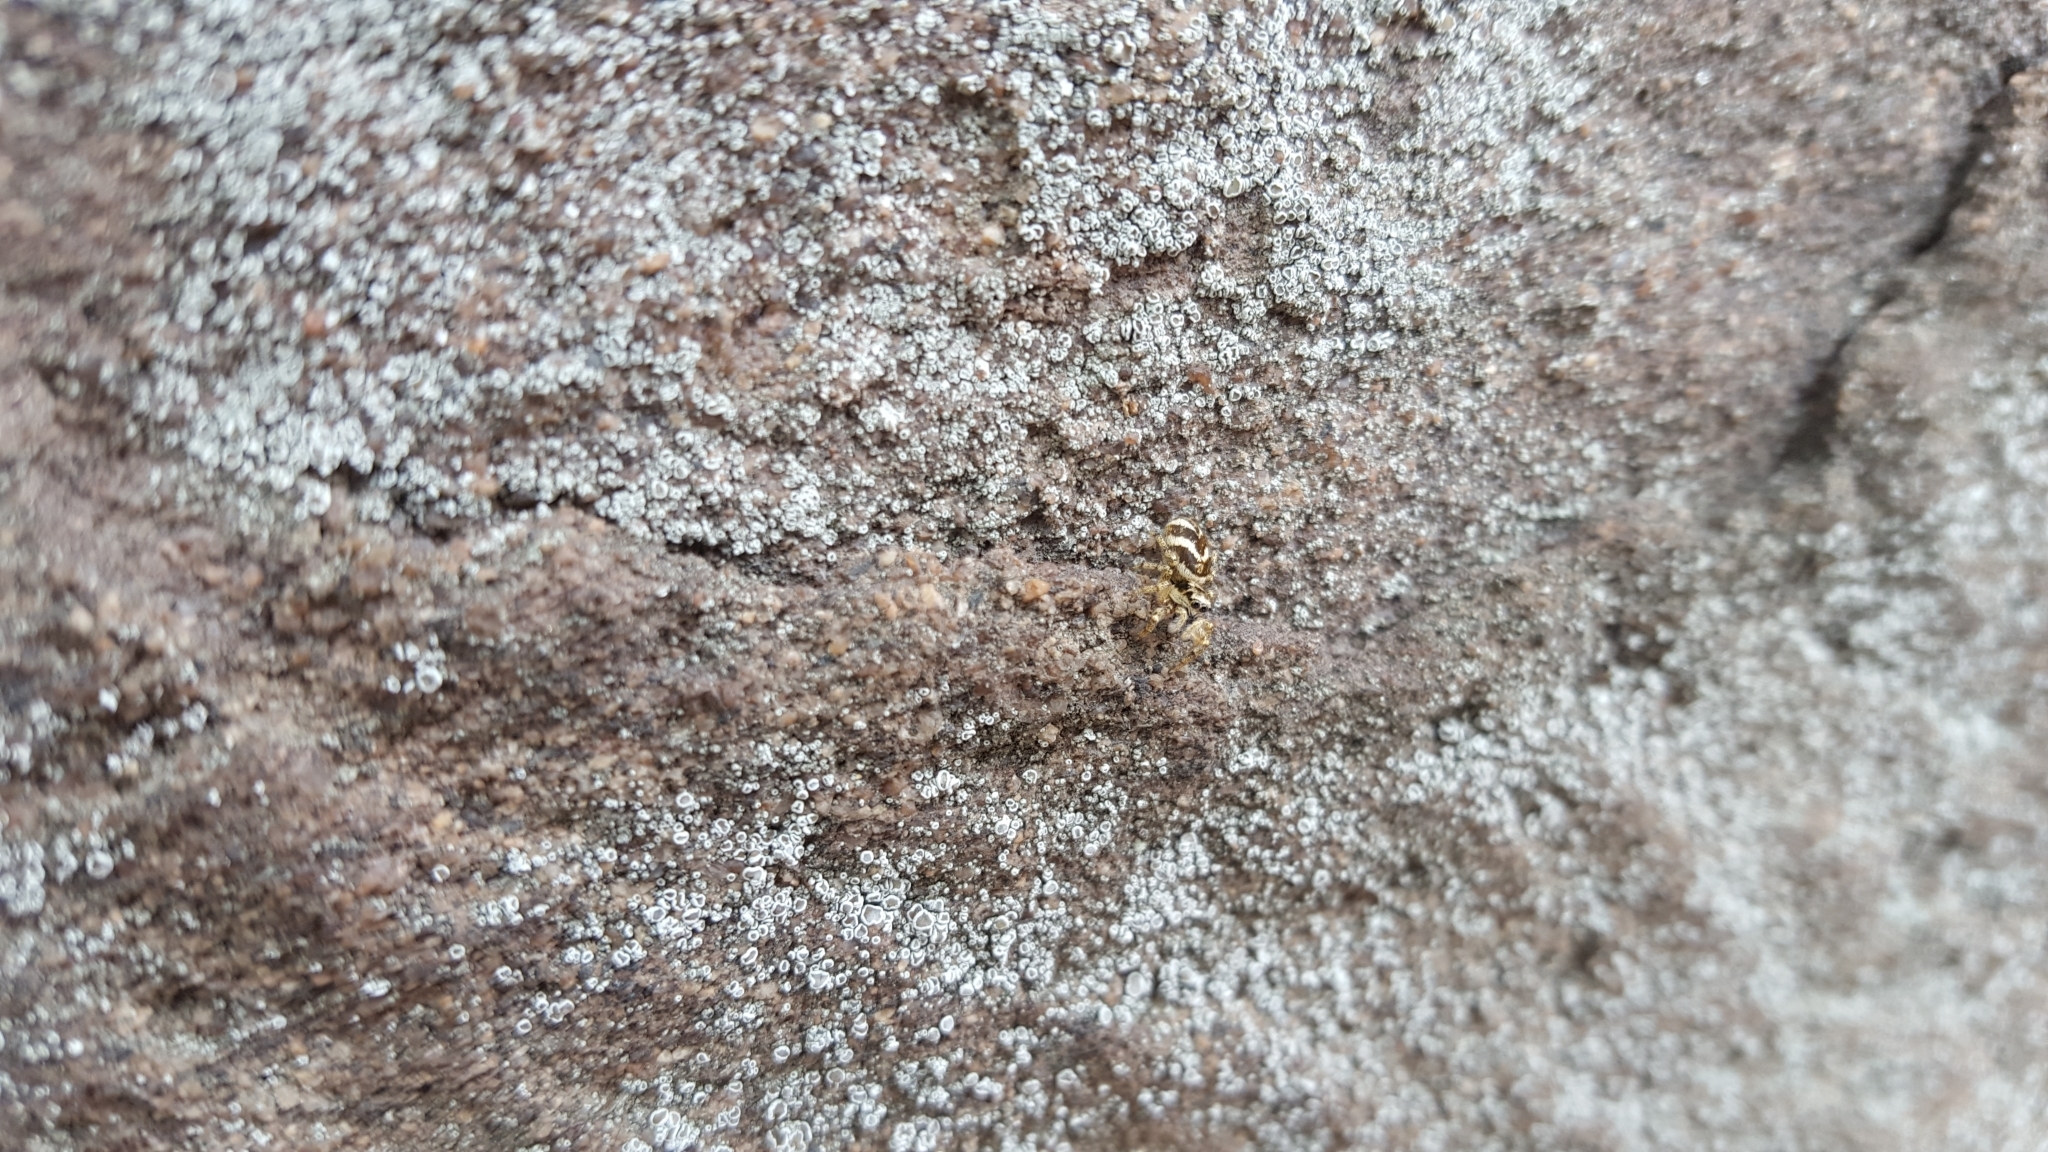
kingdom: Animalia
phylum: Arthropoda
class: Arachnida
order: Araneae
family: Salticidae
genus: Salticus
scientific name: Salticus scenicus
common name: Zebra jumper
